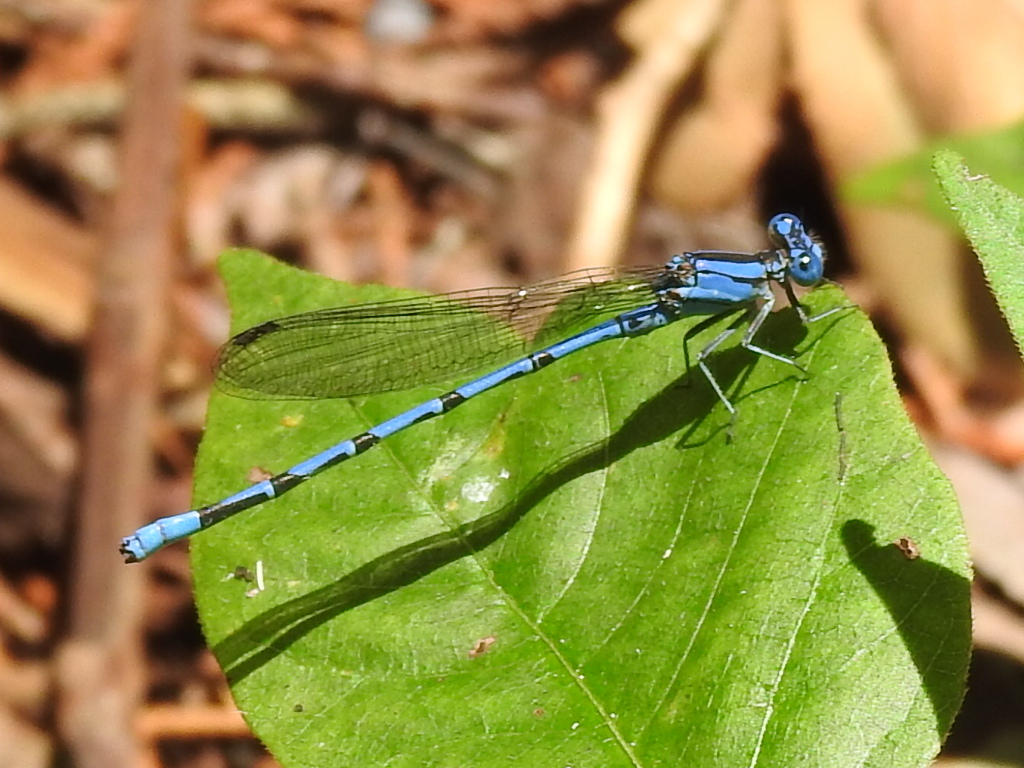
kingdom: Animalia
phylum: Arthropoda
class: Insecta
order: Odonata
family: Coenagrionidae
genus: Argia
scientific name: Argia funebris
